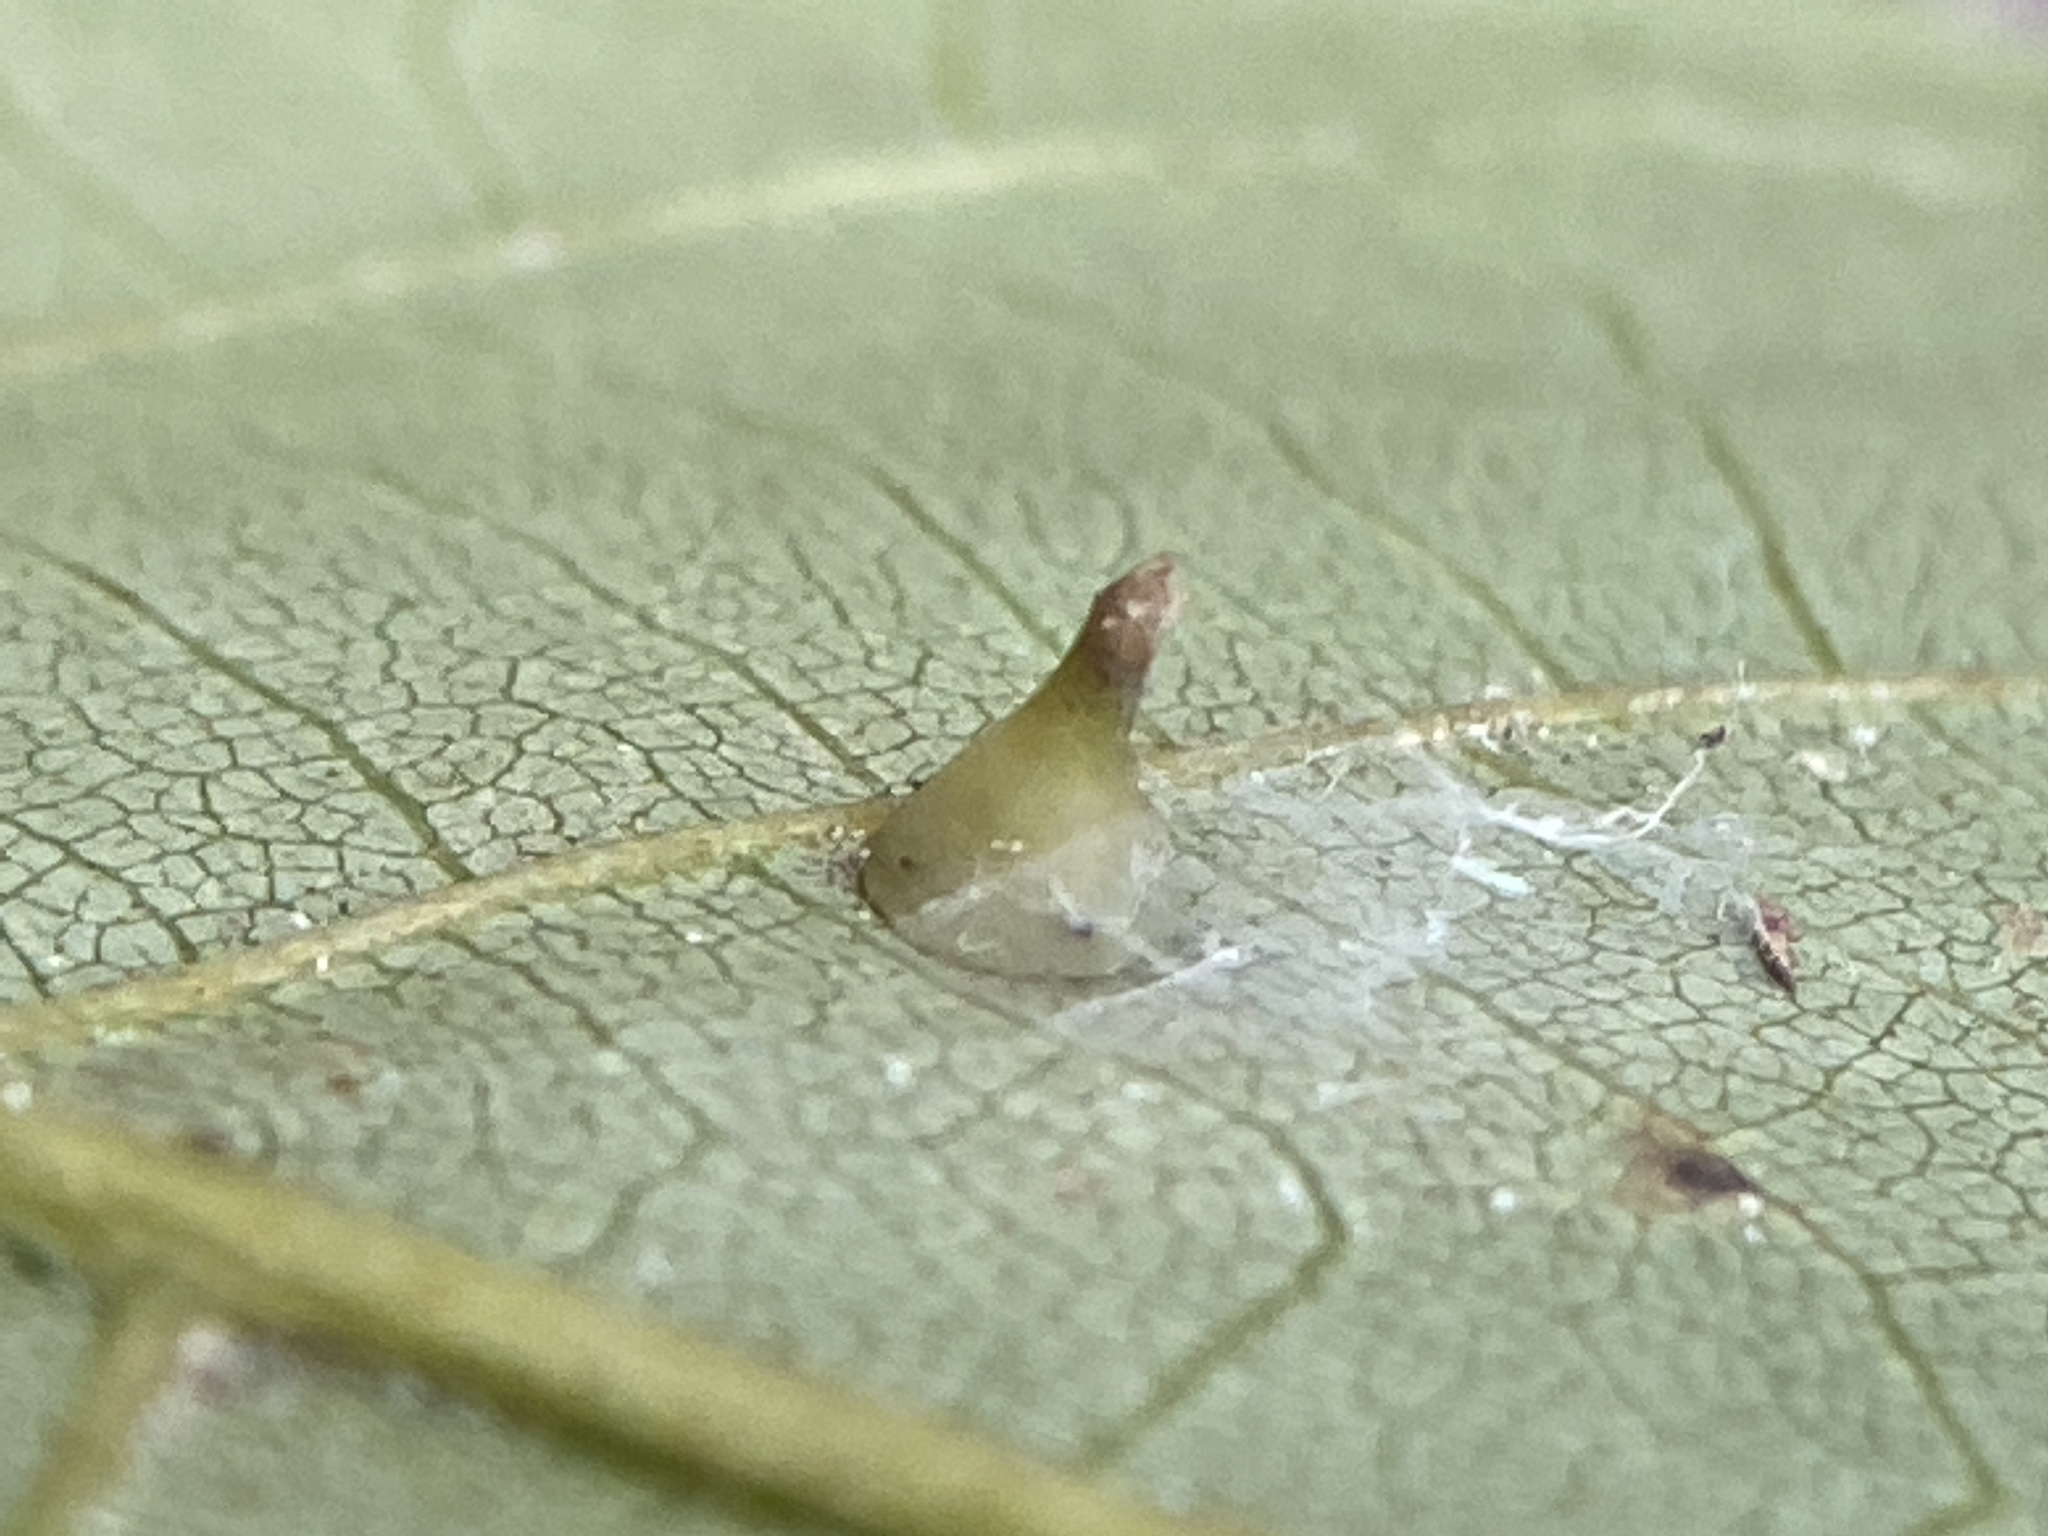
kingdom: Animalia
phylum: Arthropoda
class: Insecta
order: Diptera
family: Cecidomyiidae
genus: Caryomyia
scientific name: Caryomyia sanguinolenta
